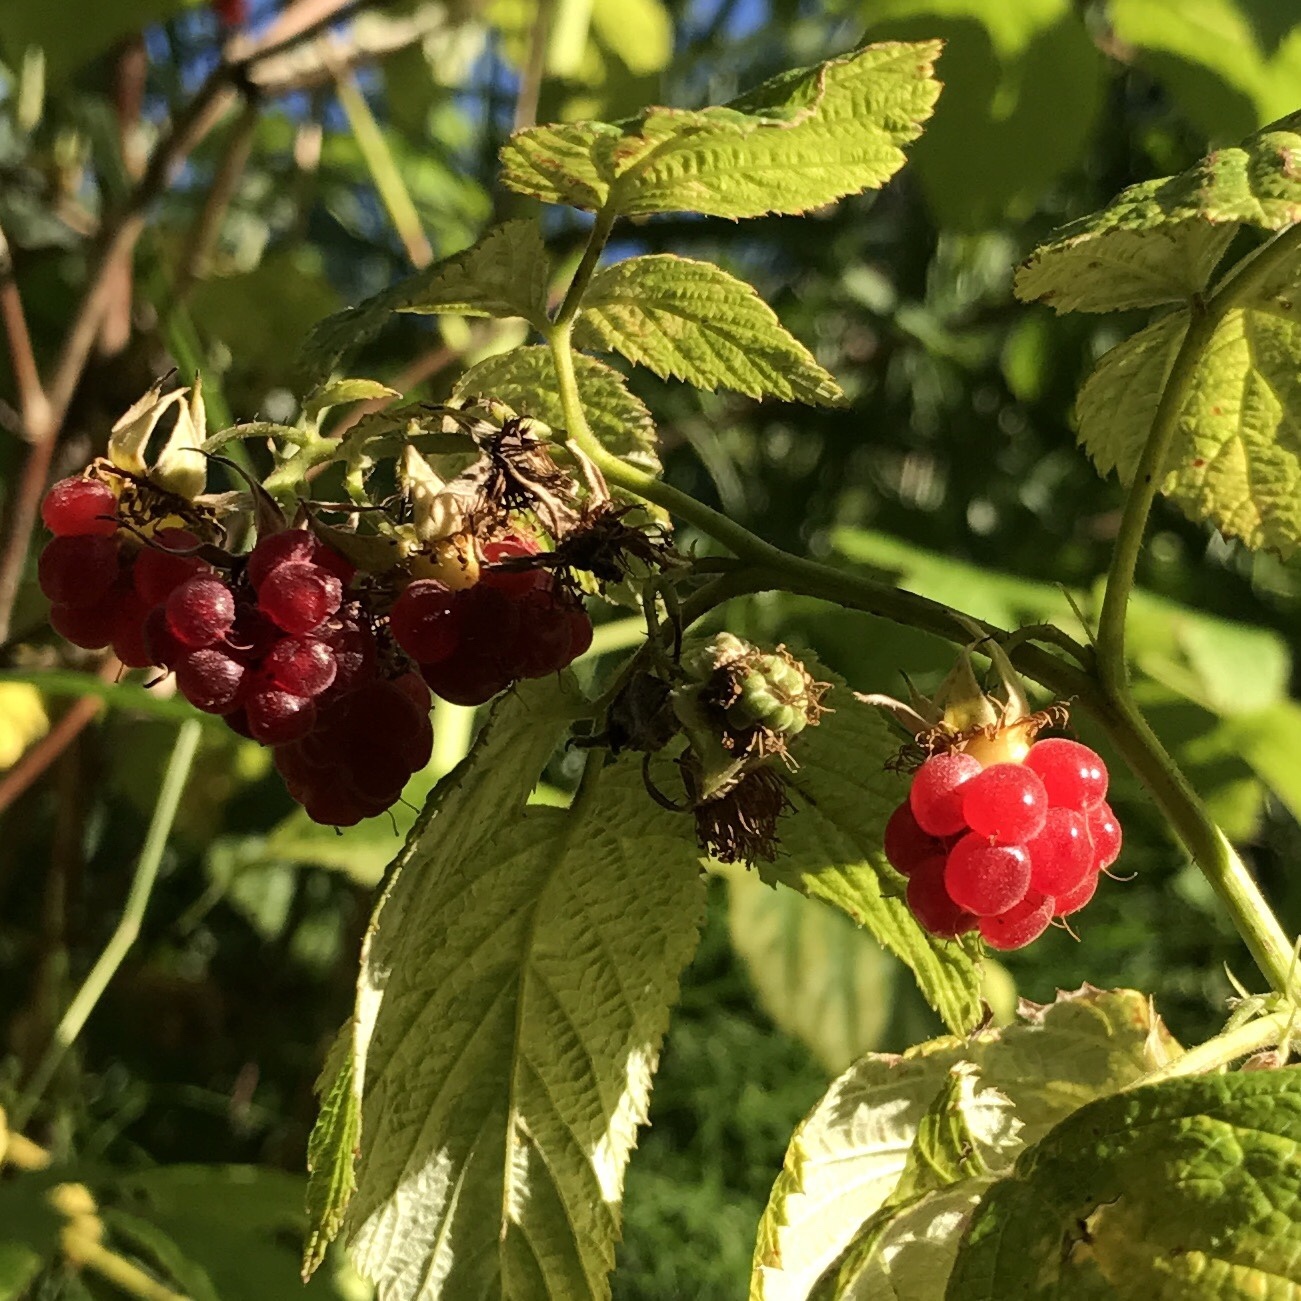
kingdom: Plantae
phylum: Tracheophyta
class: Magnoliopsida
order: Rosales
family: Rosaceae
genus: Rubus
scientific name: Rubus idaeus
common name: Raspberry
